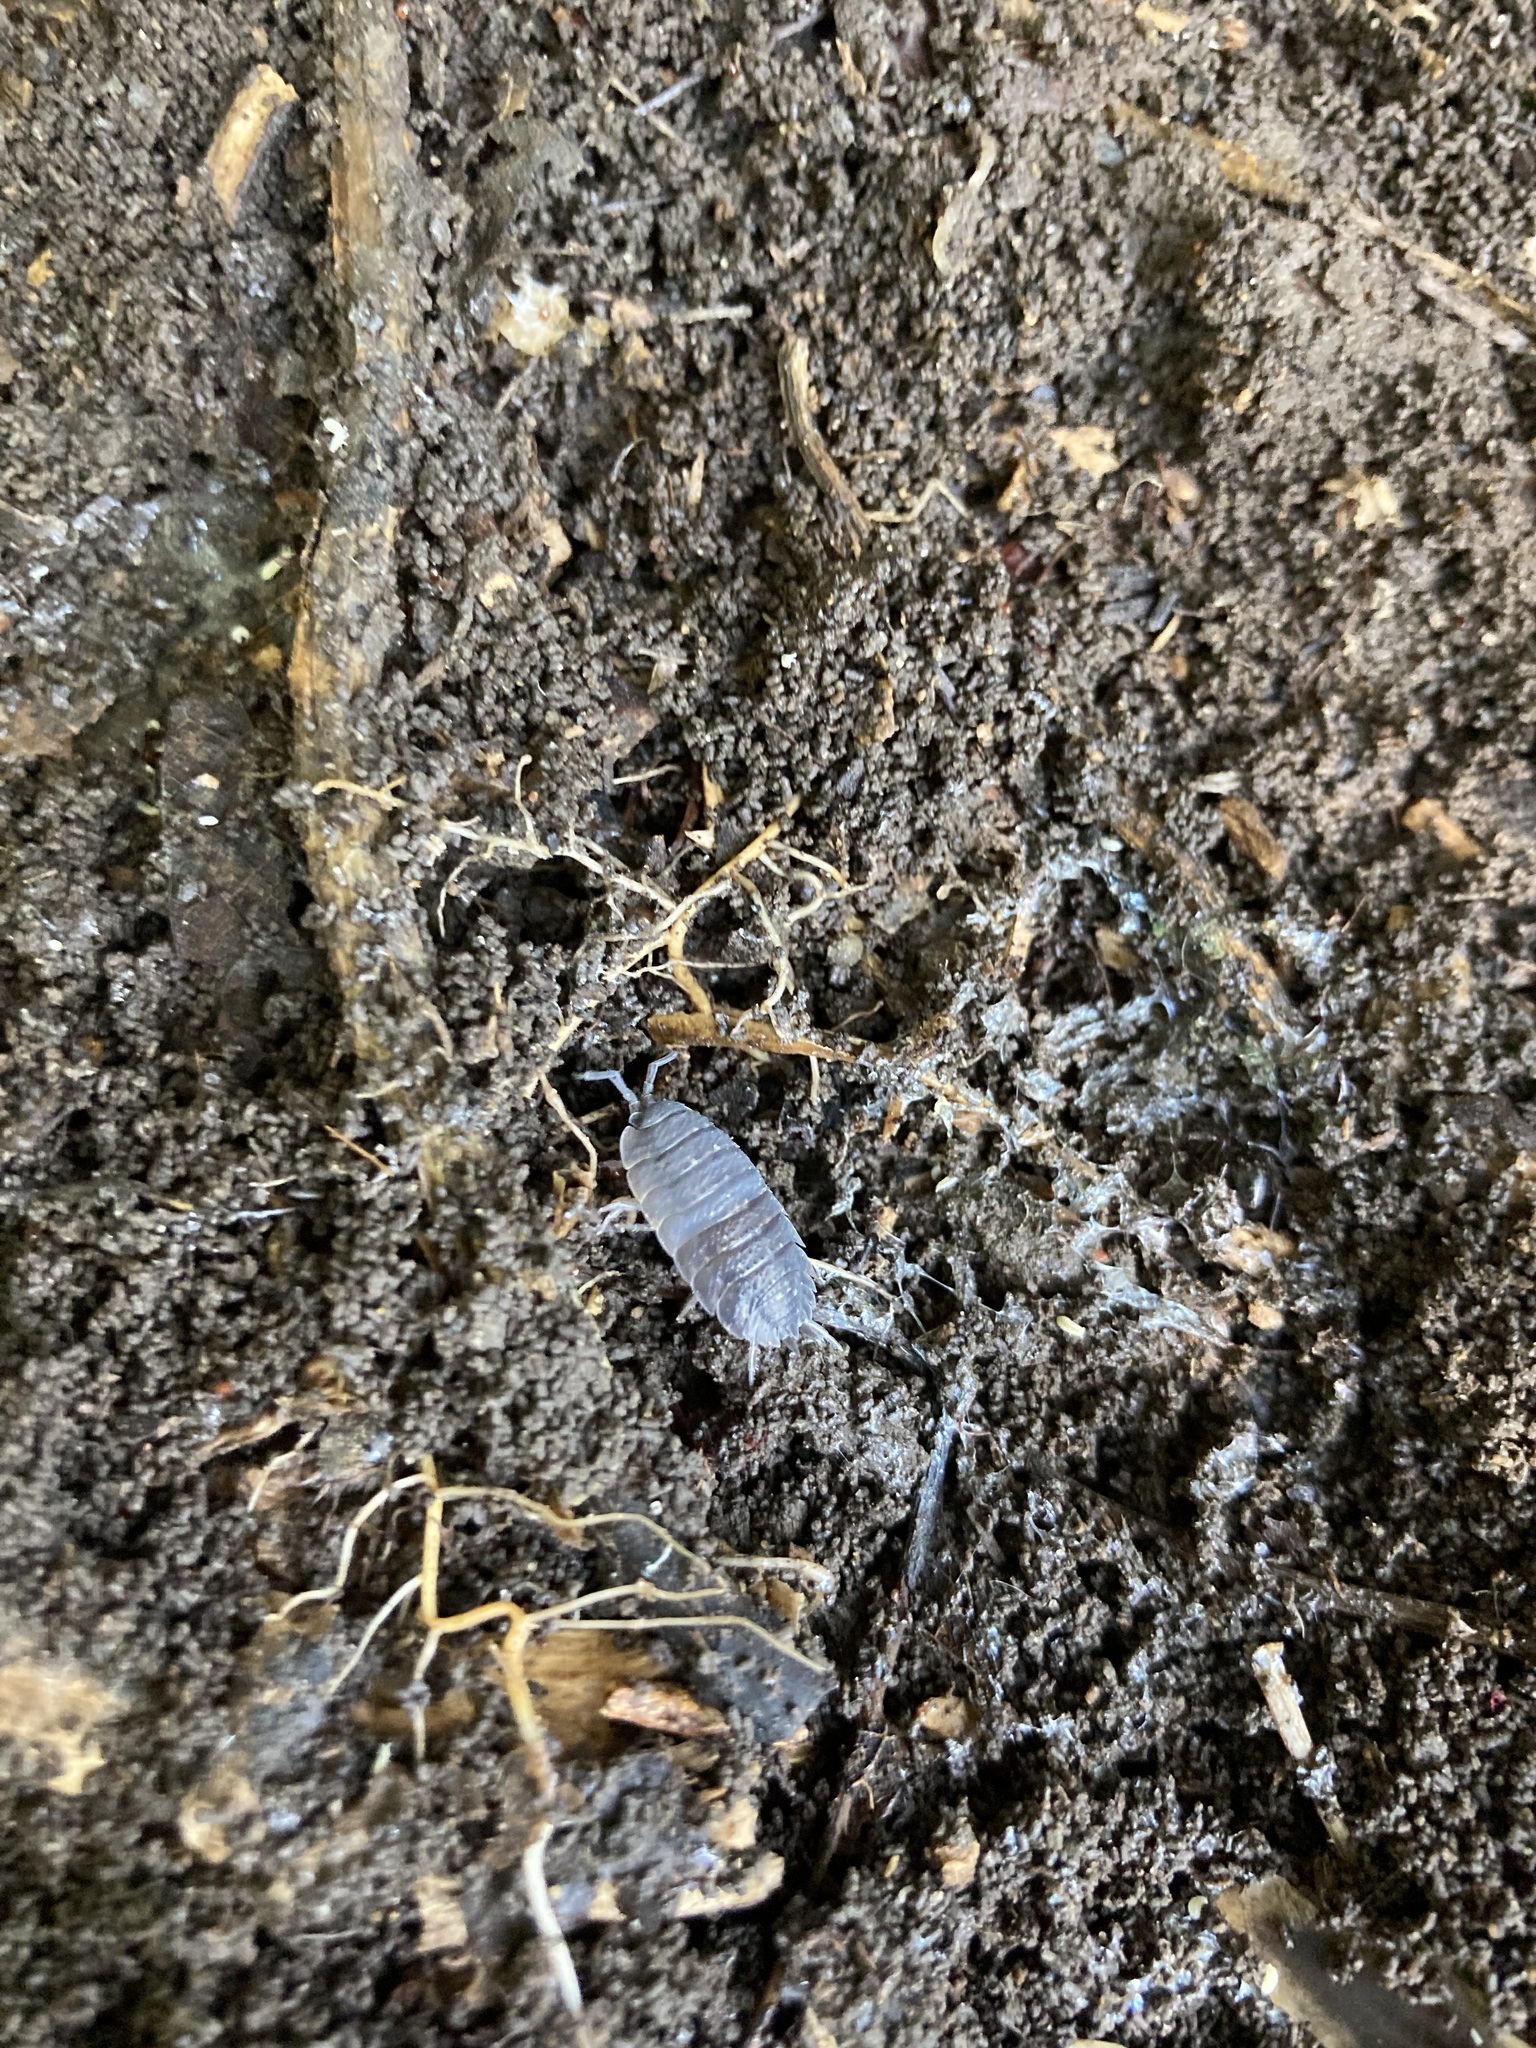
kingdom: Animalia
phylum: Arthropoda
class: Malacostraca
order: Isopoda
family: Porcellionidae
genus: Porcellio
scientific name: Porcellio scaber
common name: Common rough woodlouse
